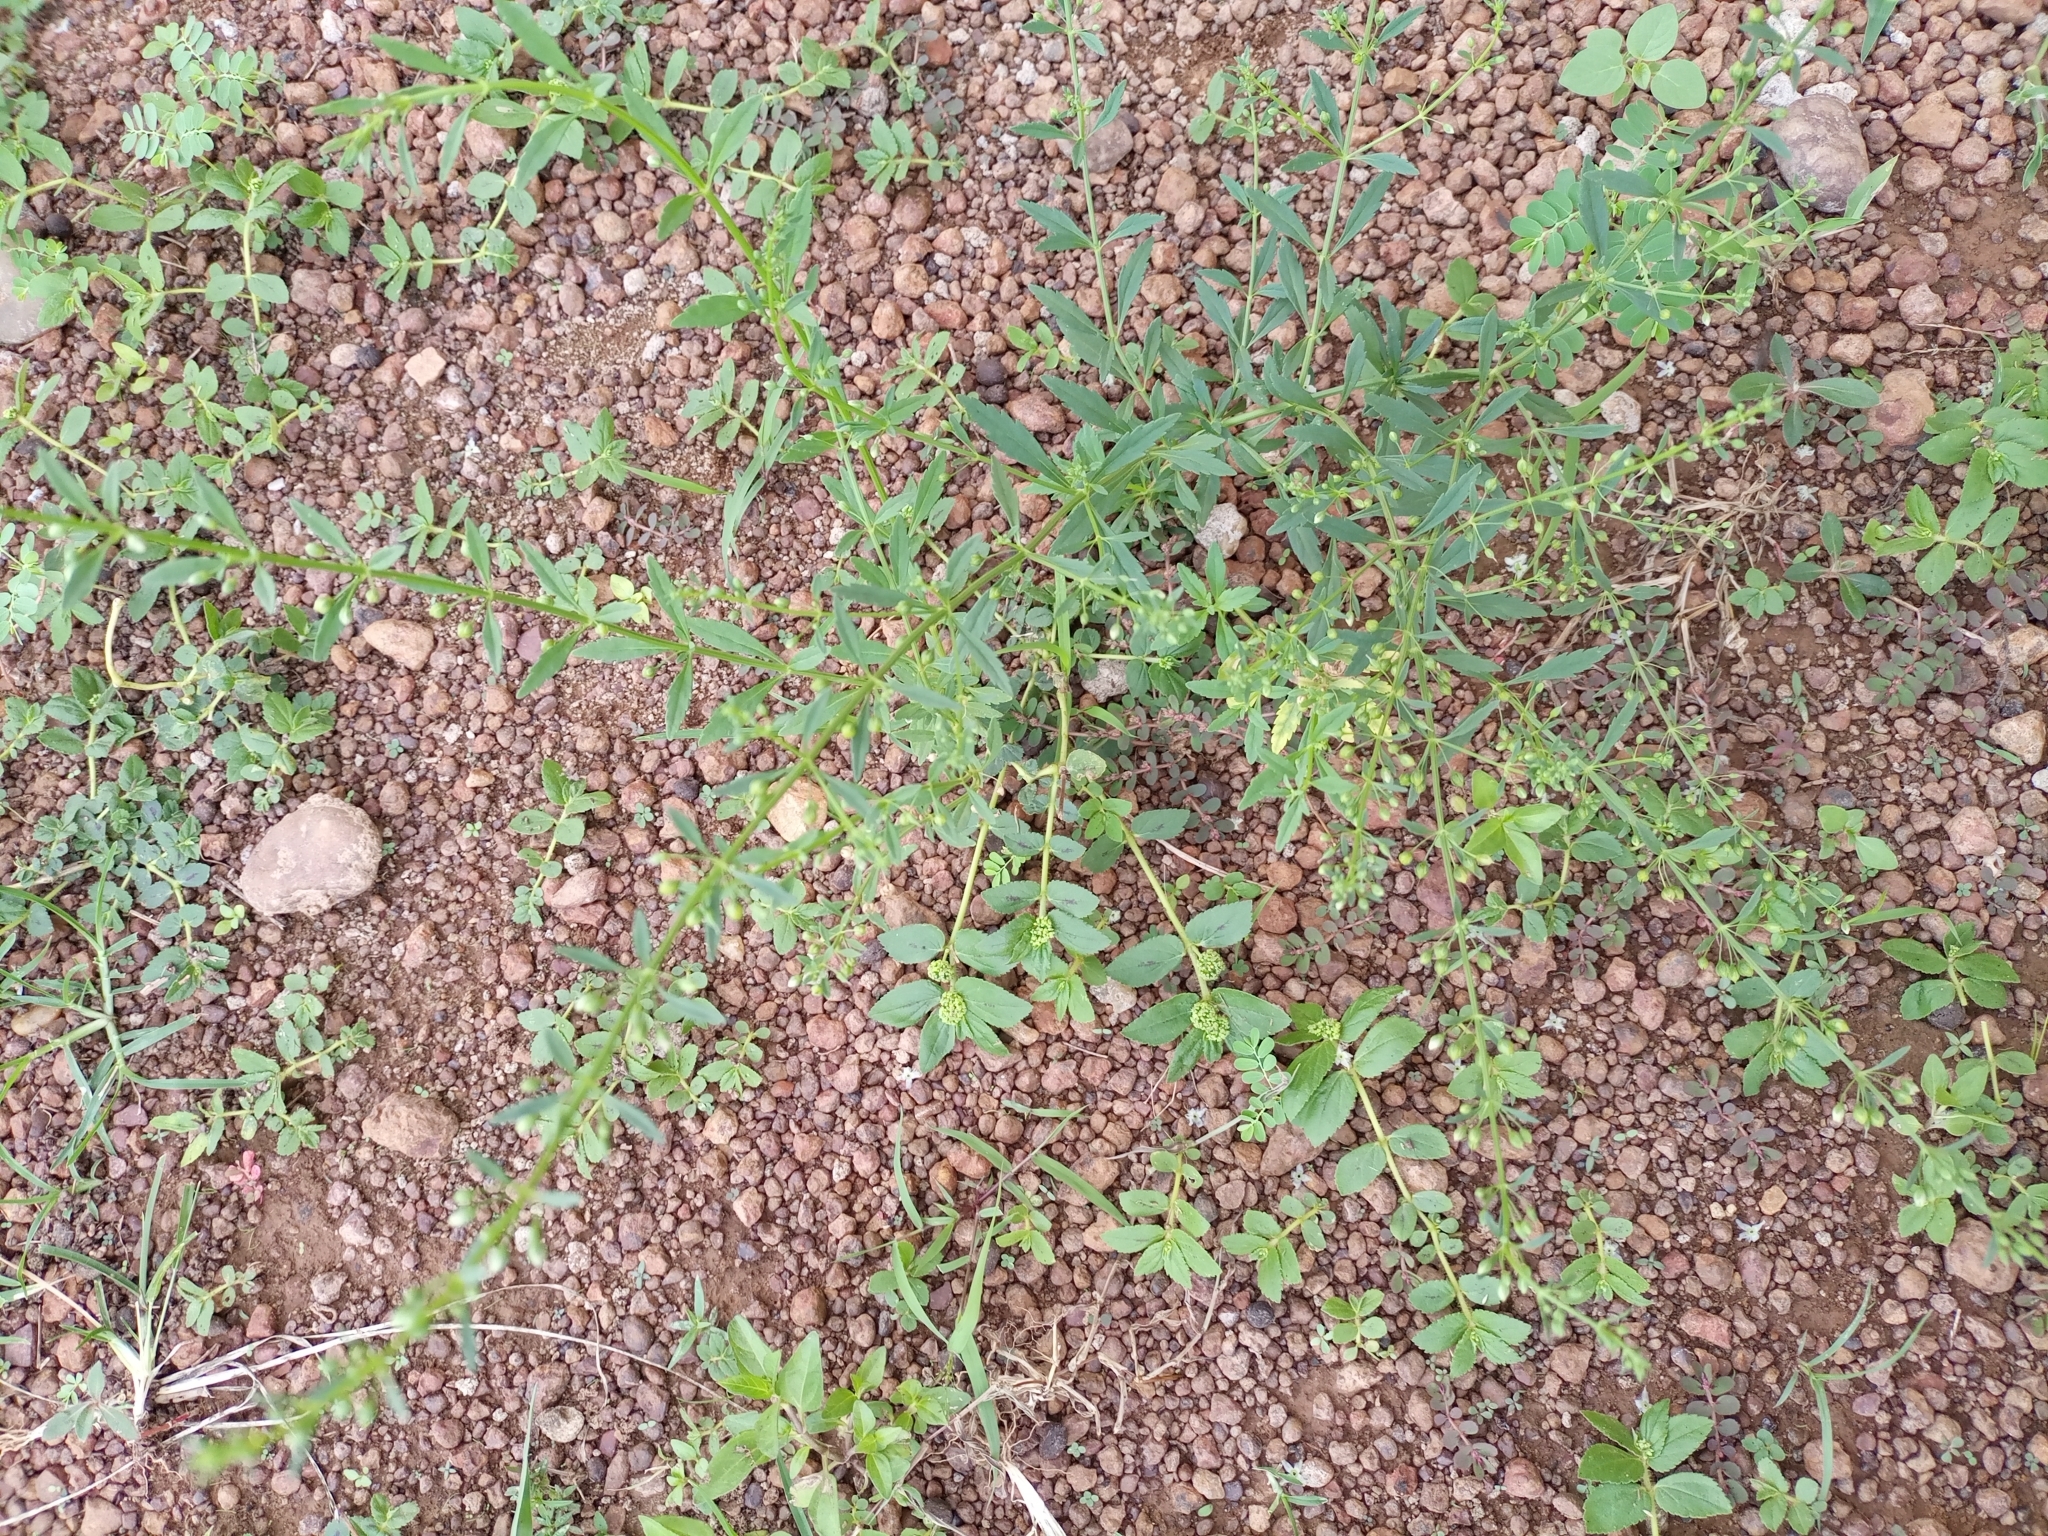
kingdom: Plantae
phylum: Tracheophyta
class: Magnoliopsida
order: Lamiales
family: Plantaginaceae
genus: Scoparia
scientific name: Scoparia dulcis
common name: Scoparia-weed
